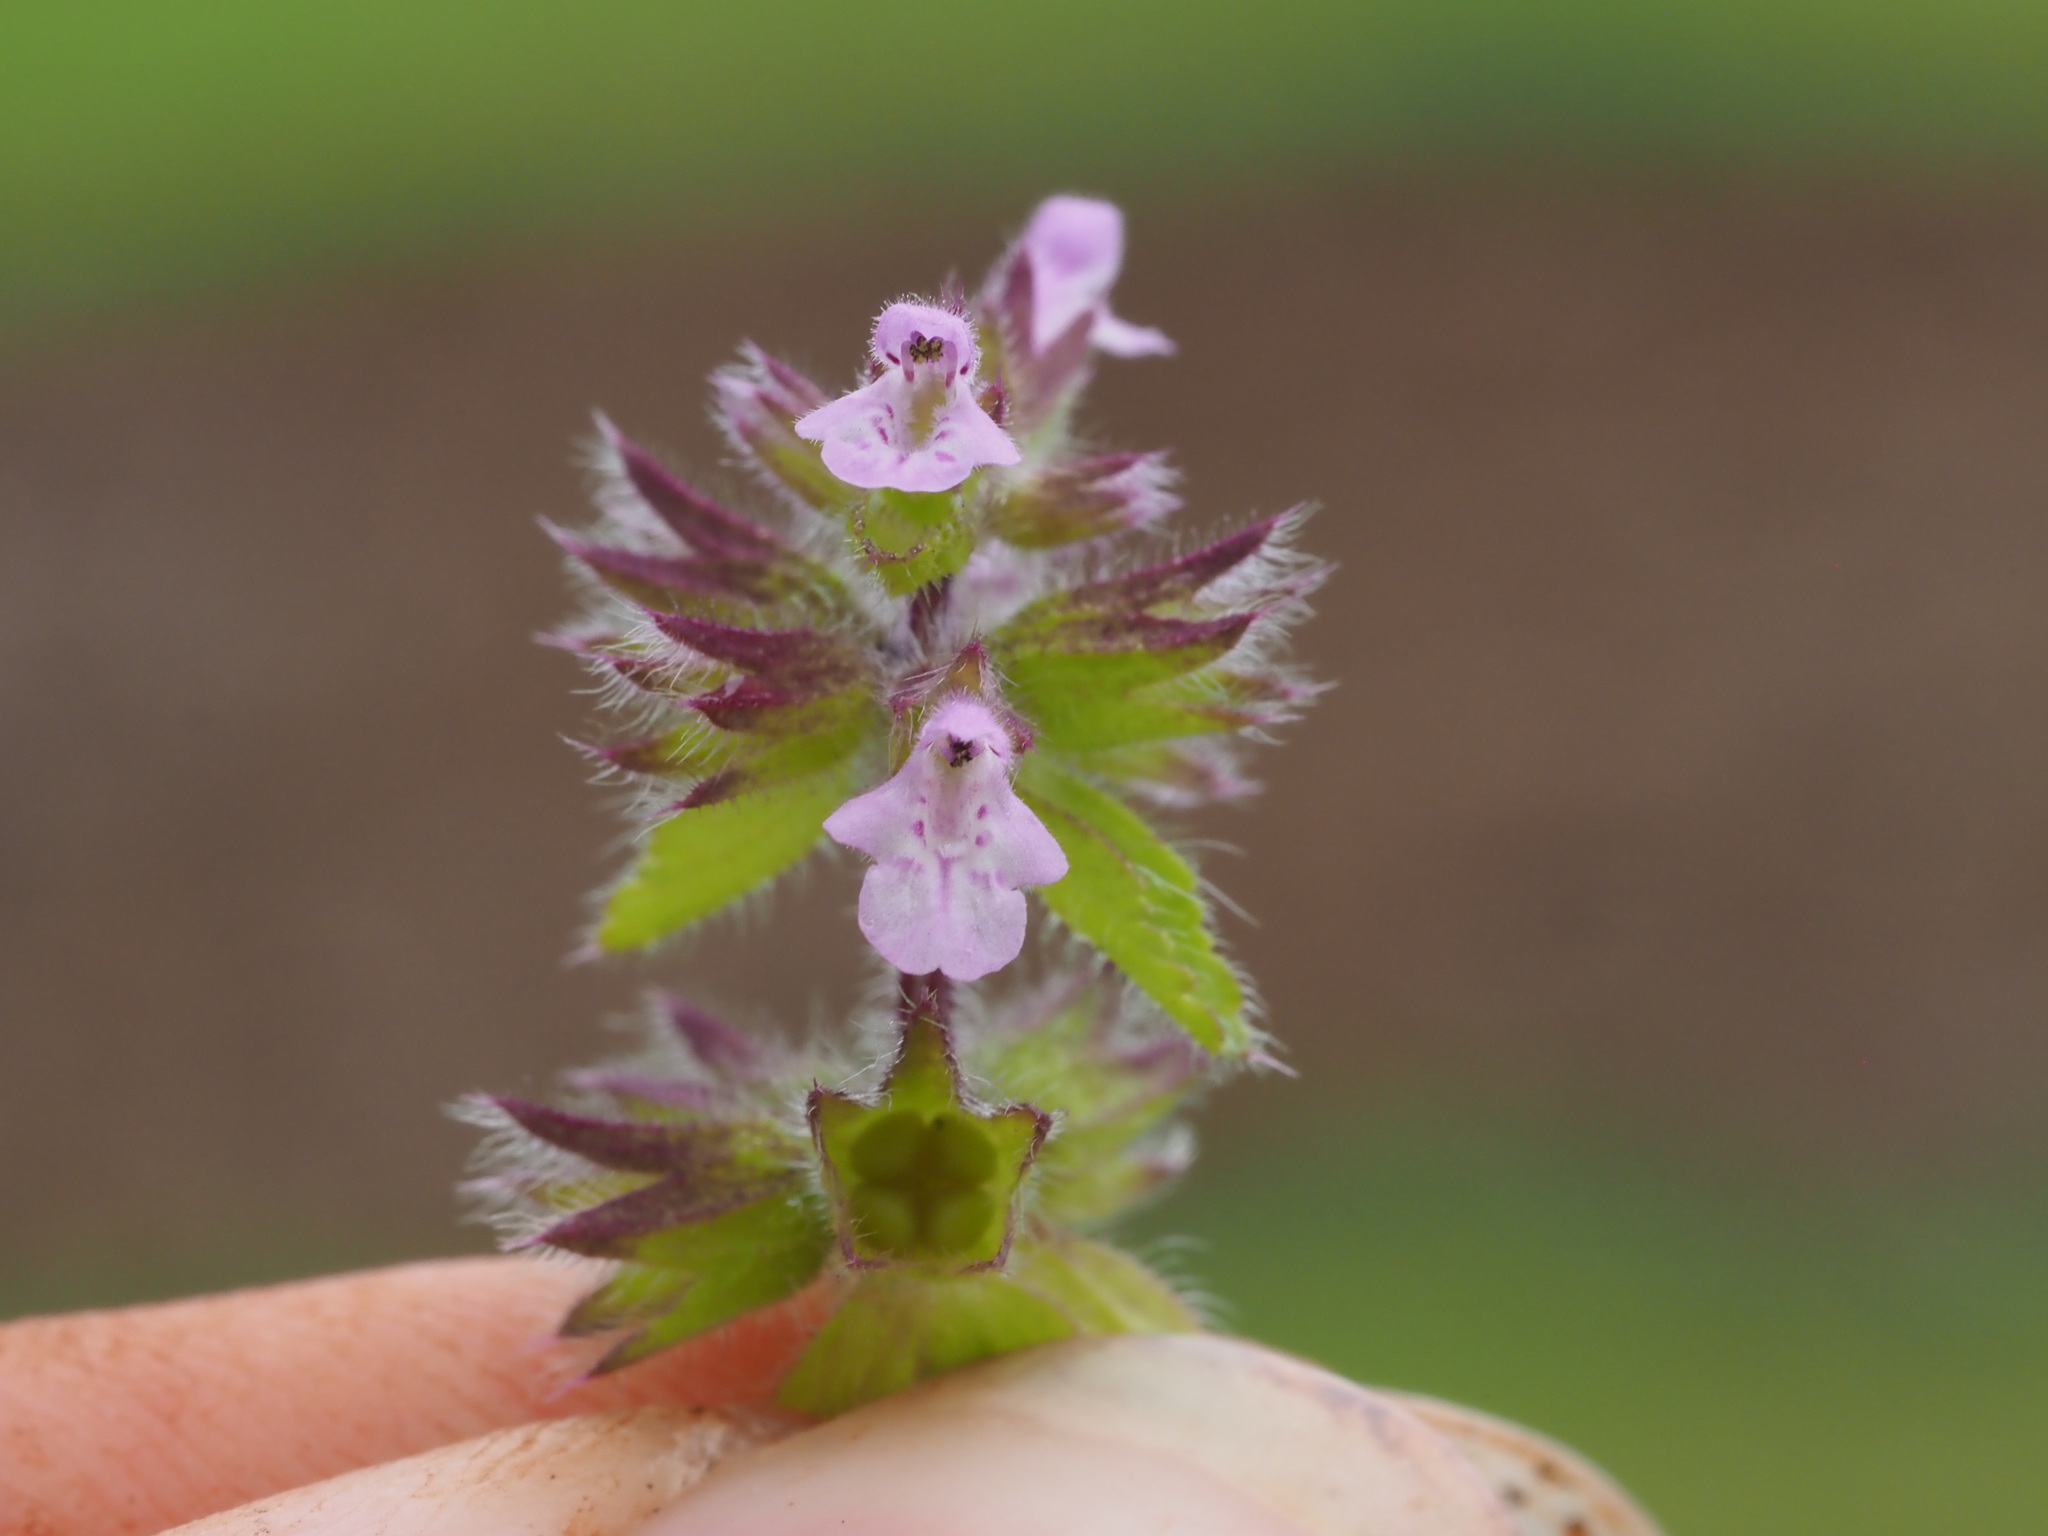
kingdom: Plantae
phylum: Tracheophyta
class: Magnoliopsida
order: Lamiales
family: Lamiaceae
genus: Stachys
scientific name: Stachys arvensis
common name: Field woundwort
